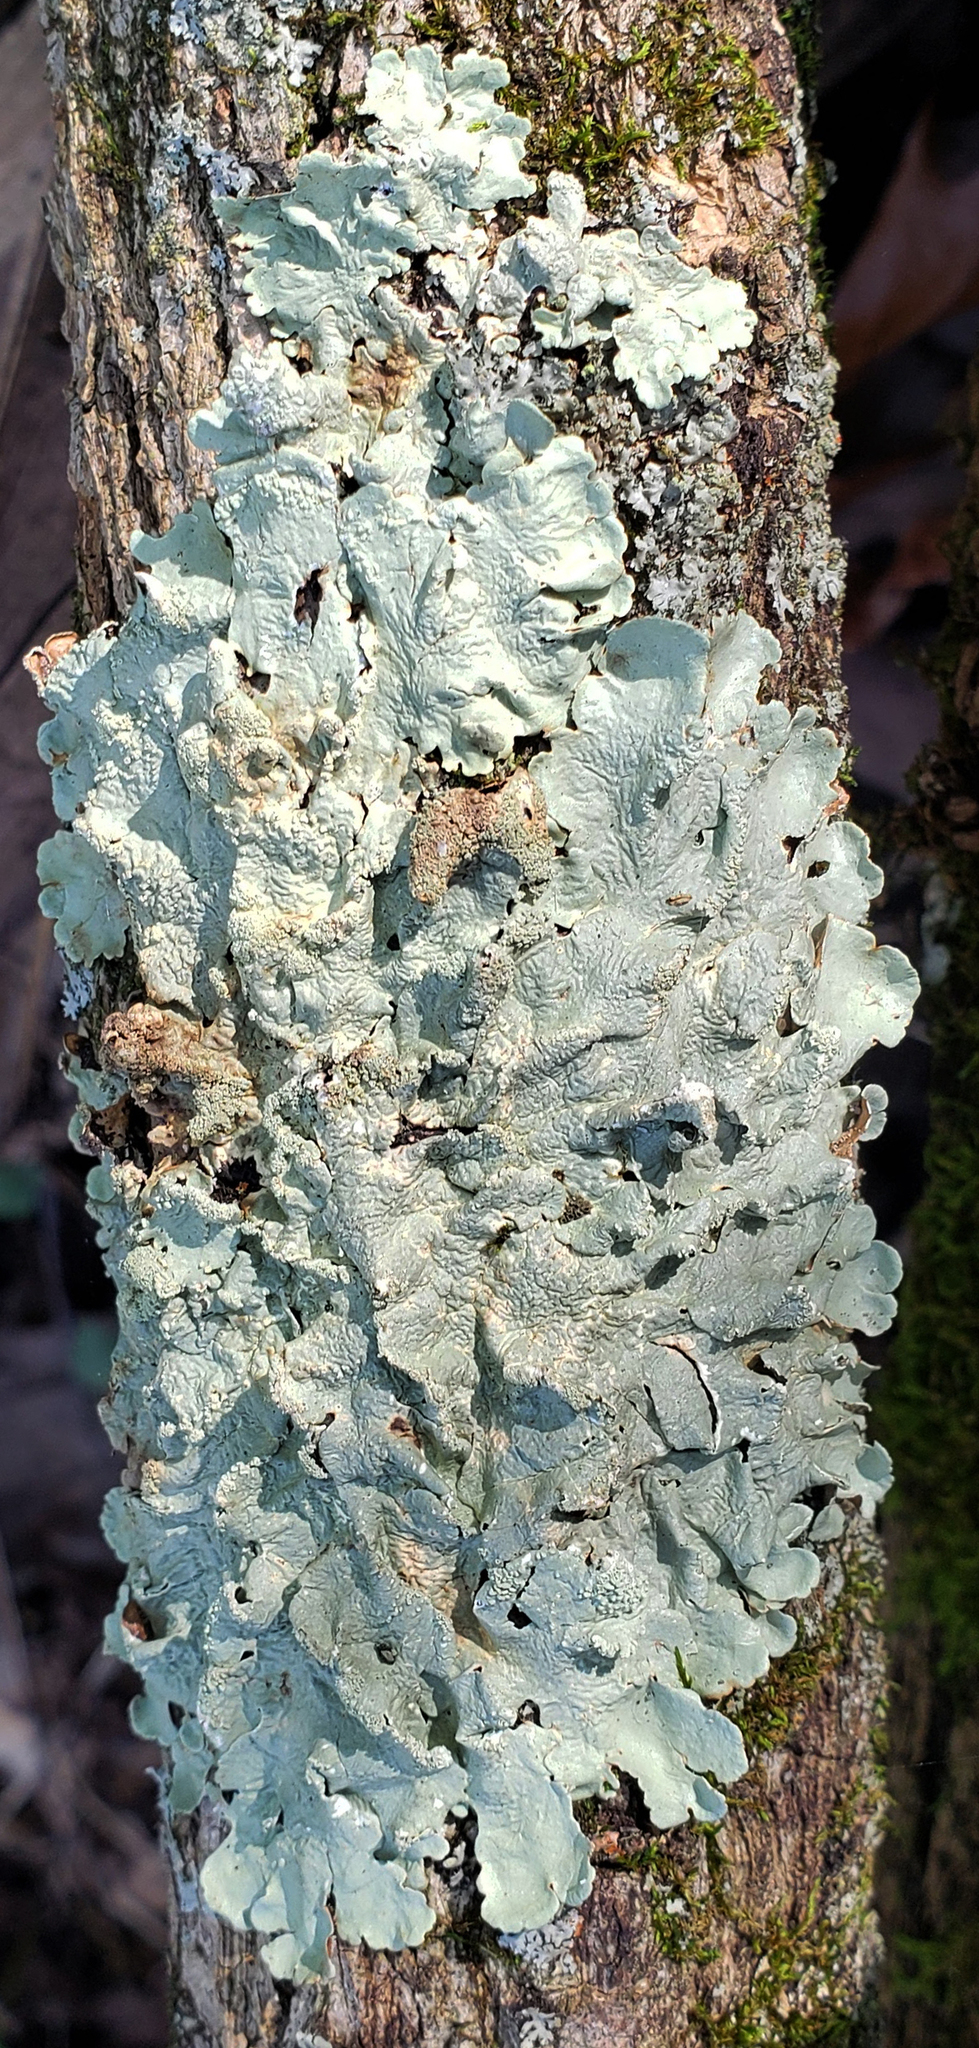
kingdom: Fungi
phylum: Ascomycota
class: Lecanoromycetes
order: Lecanorales
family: Parmeliaceae
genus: Flavoparmelia
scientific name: Flavoparmelia caperata
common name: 40-mile per hour lichen
